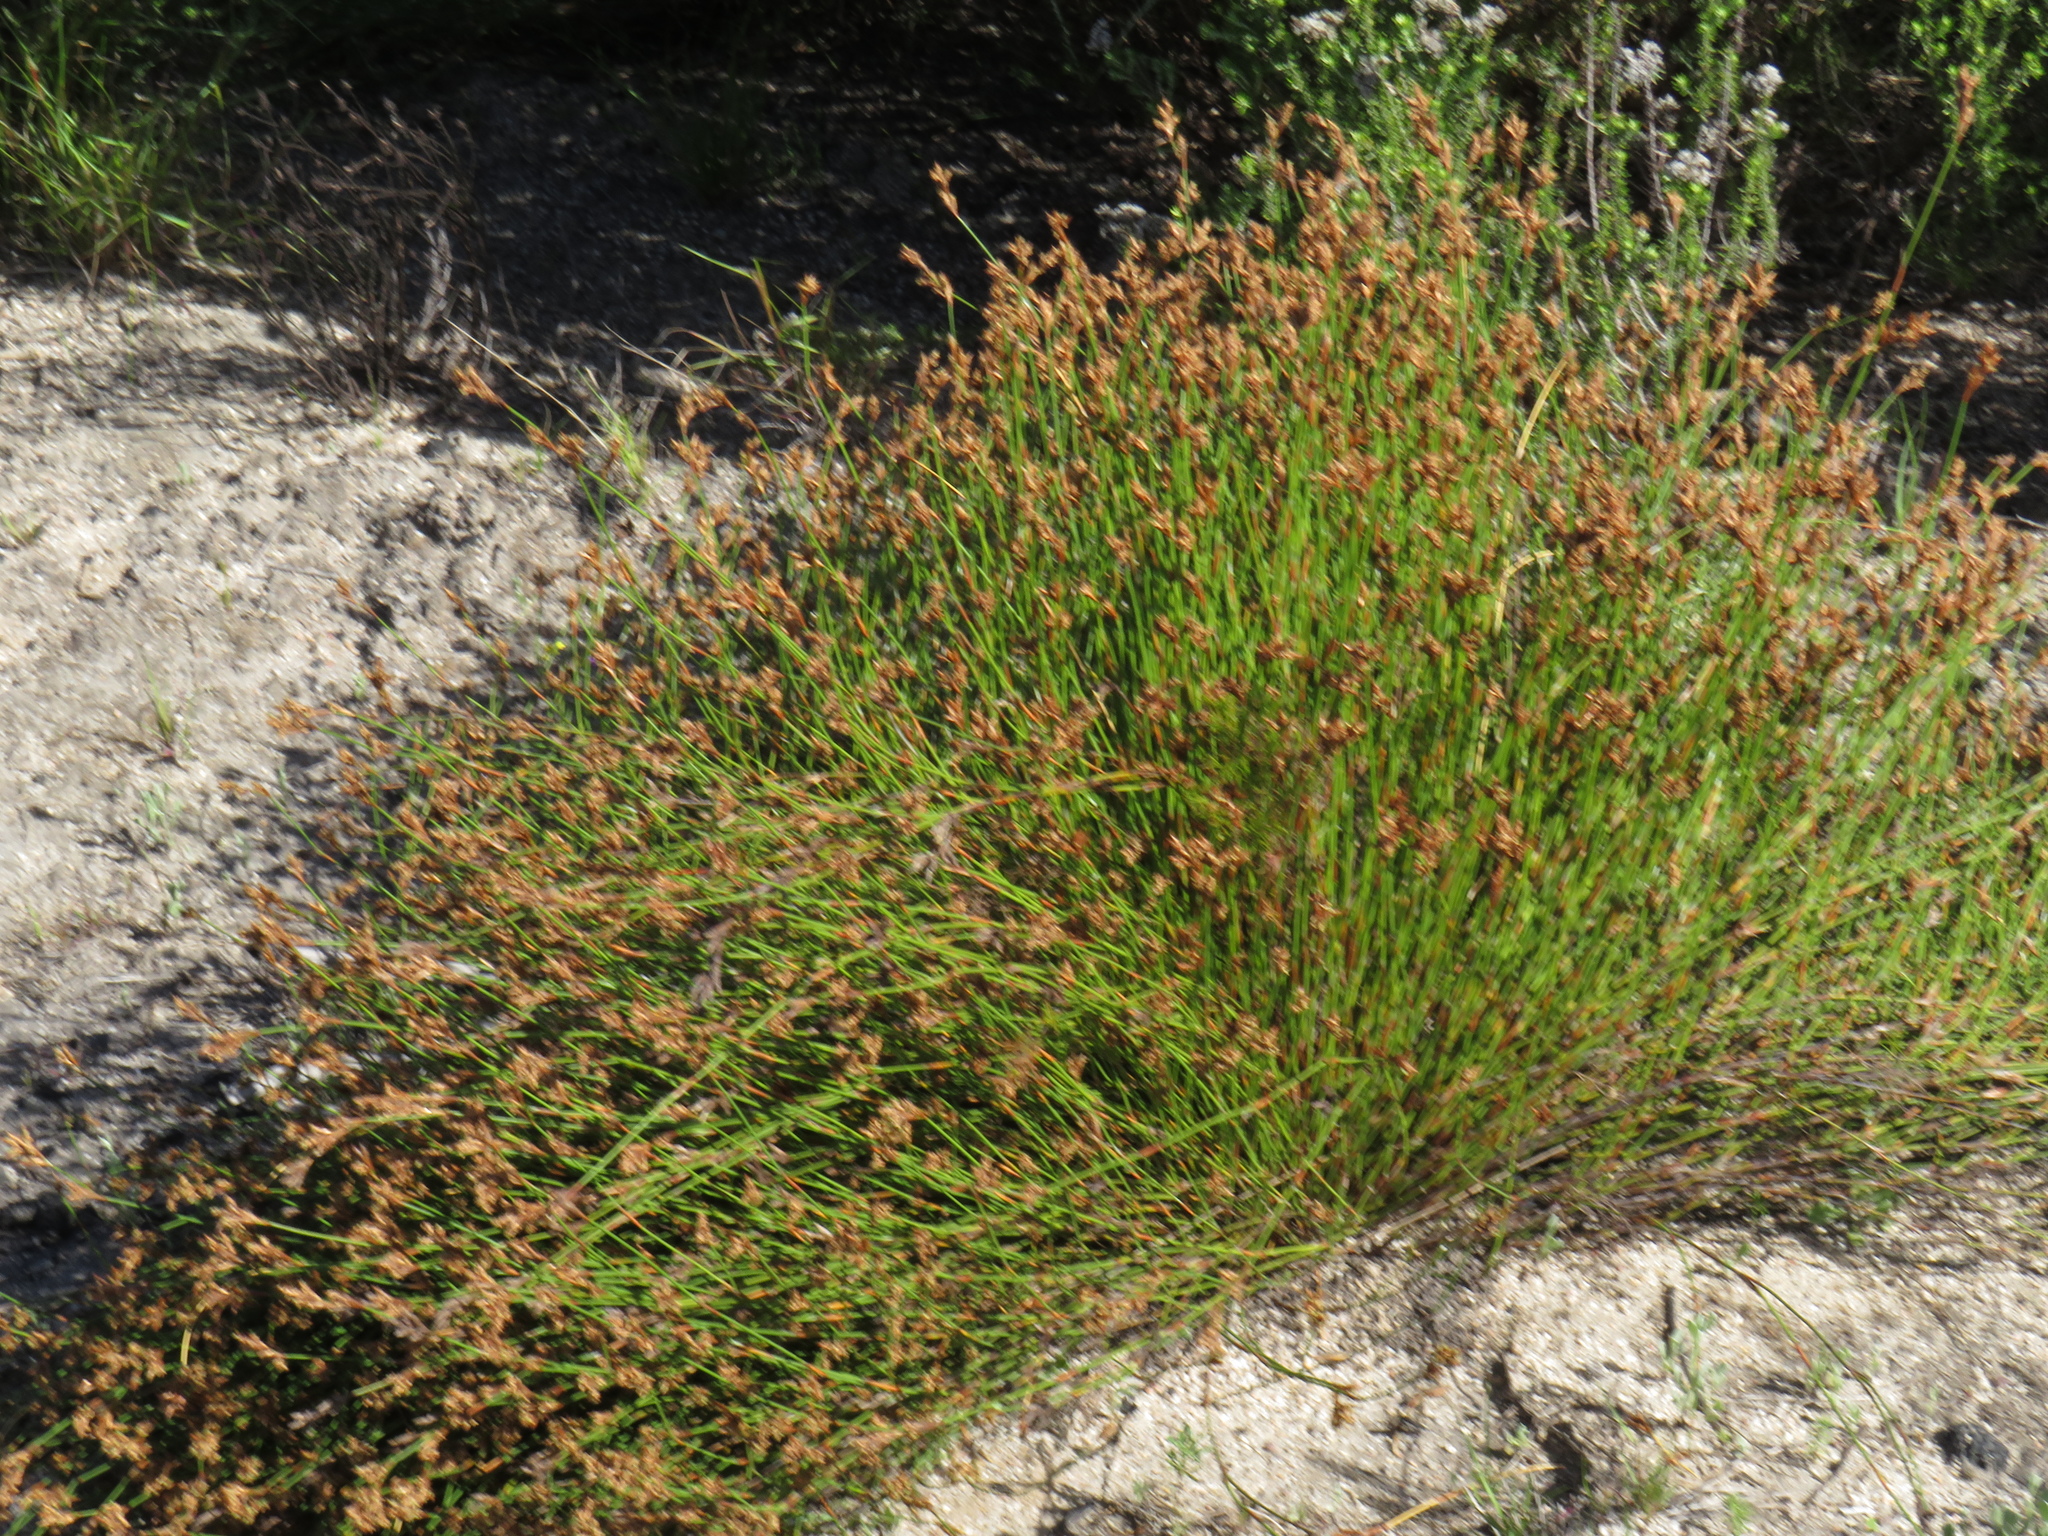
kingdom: Plantae
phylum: Tracheophyta
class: Liliopsida
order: Poales
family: Restionaceae
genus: Restio
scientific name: Restio capensis
